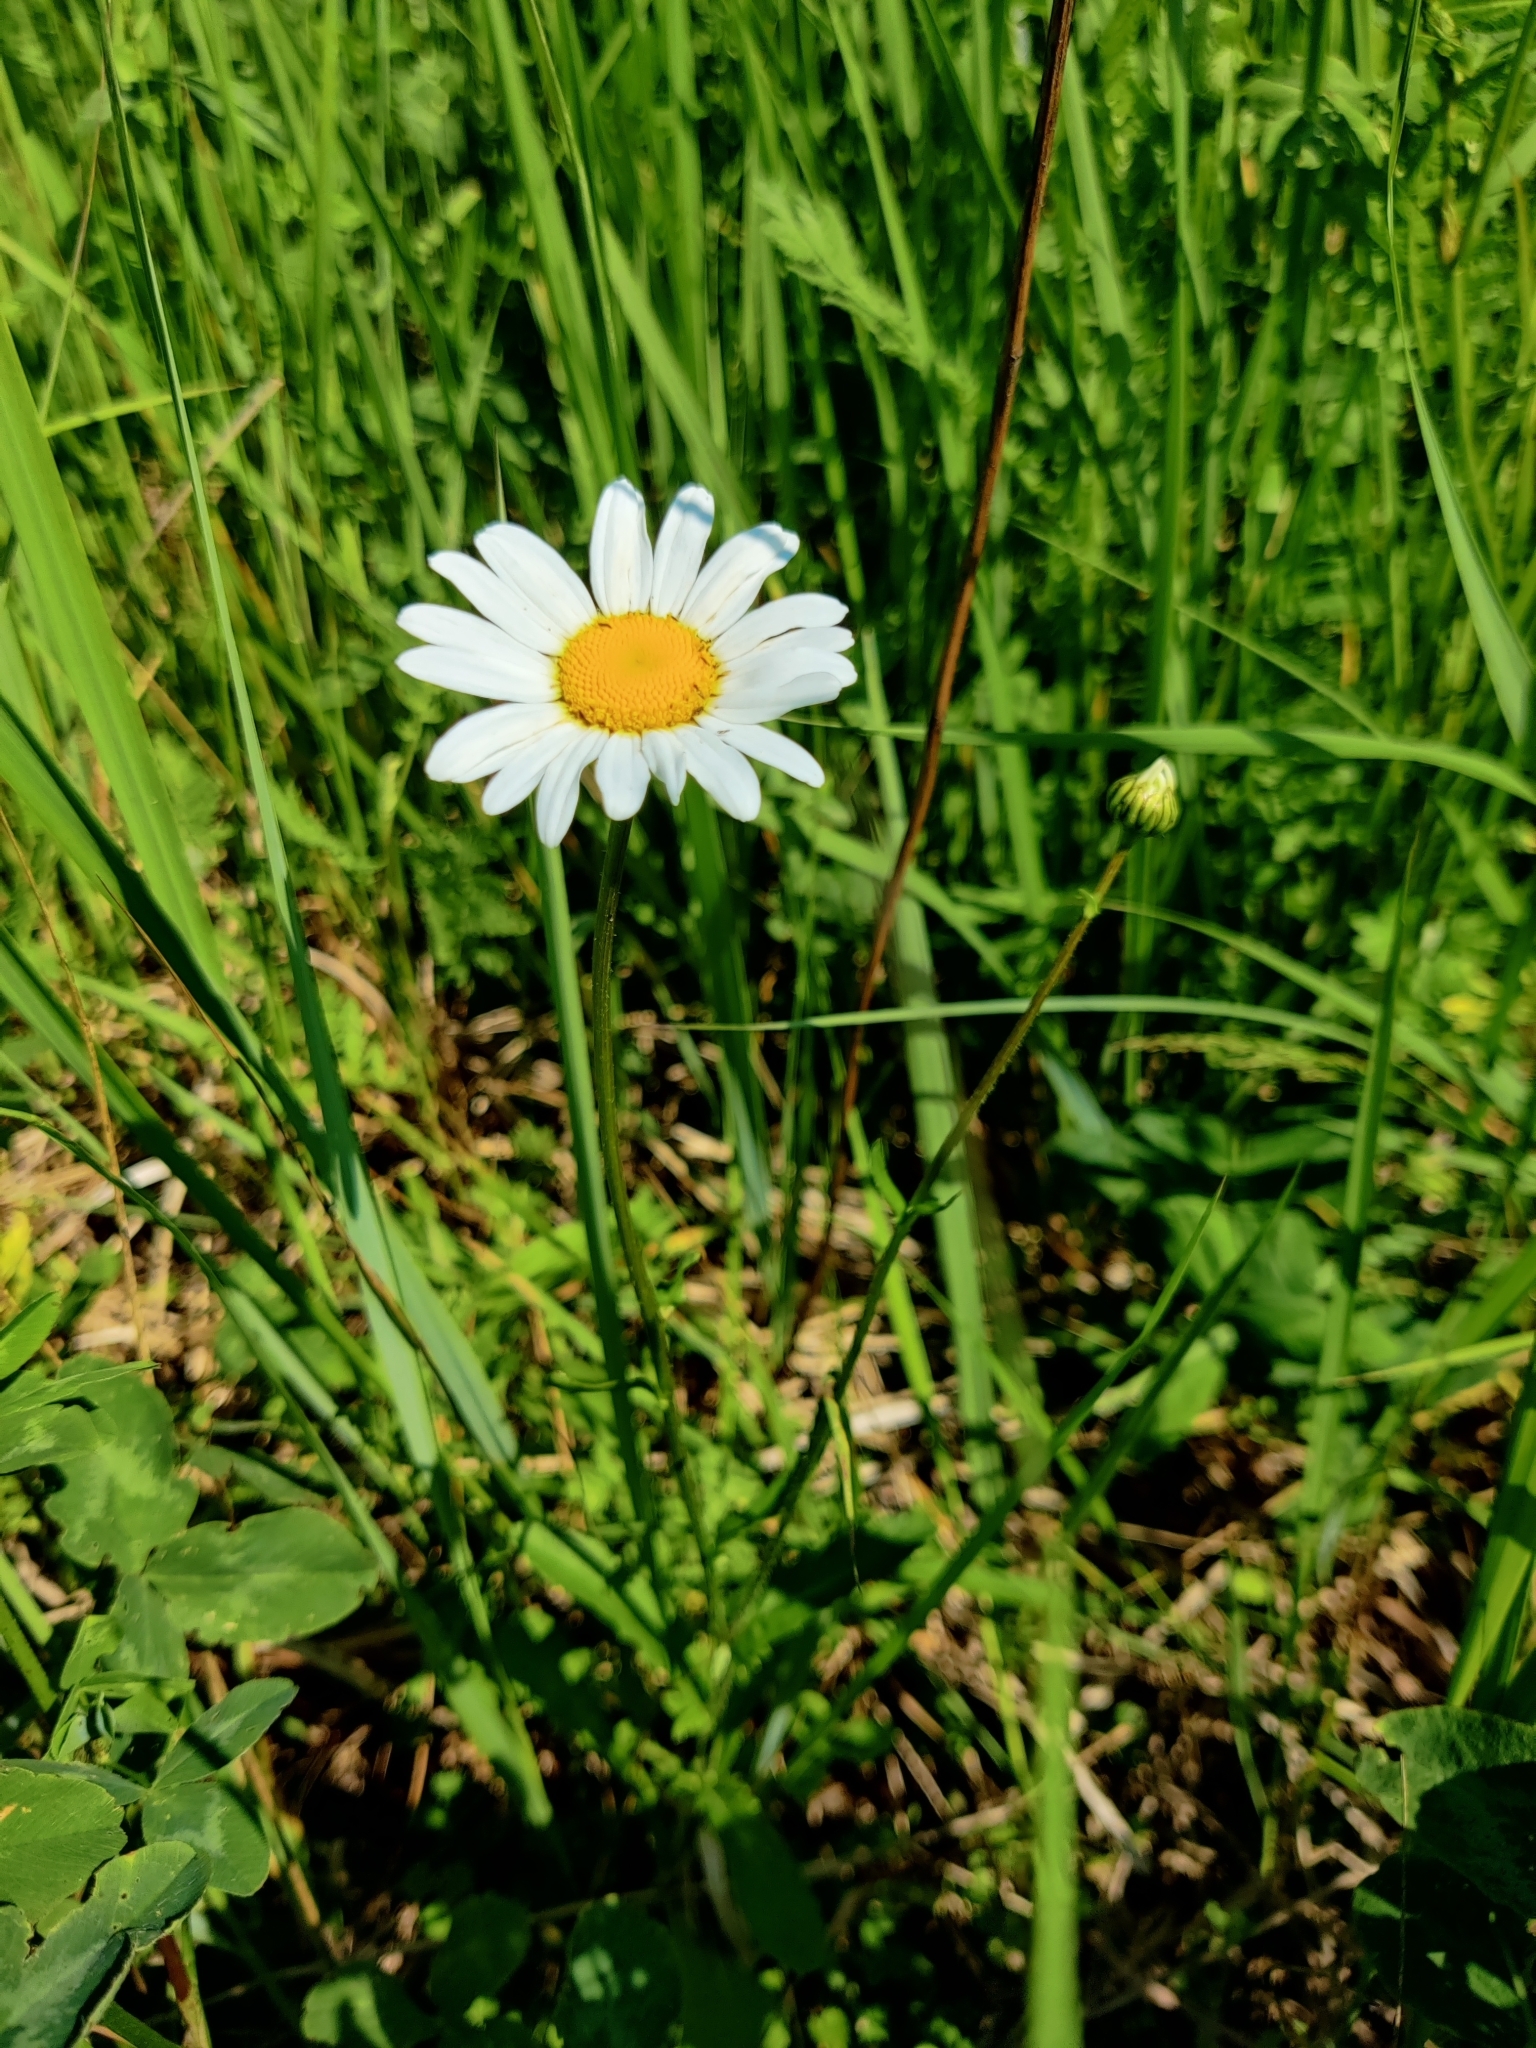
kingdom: Plantae
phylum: Tracheophyta
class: Magnoliopsida
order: Asterales
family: Asteraceae
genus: Leucanthemum
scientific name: Leucanthemum vulgare
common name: Oxeye daisy
